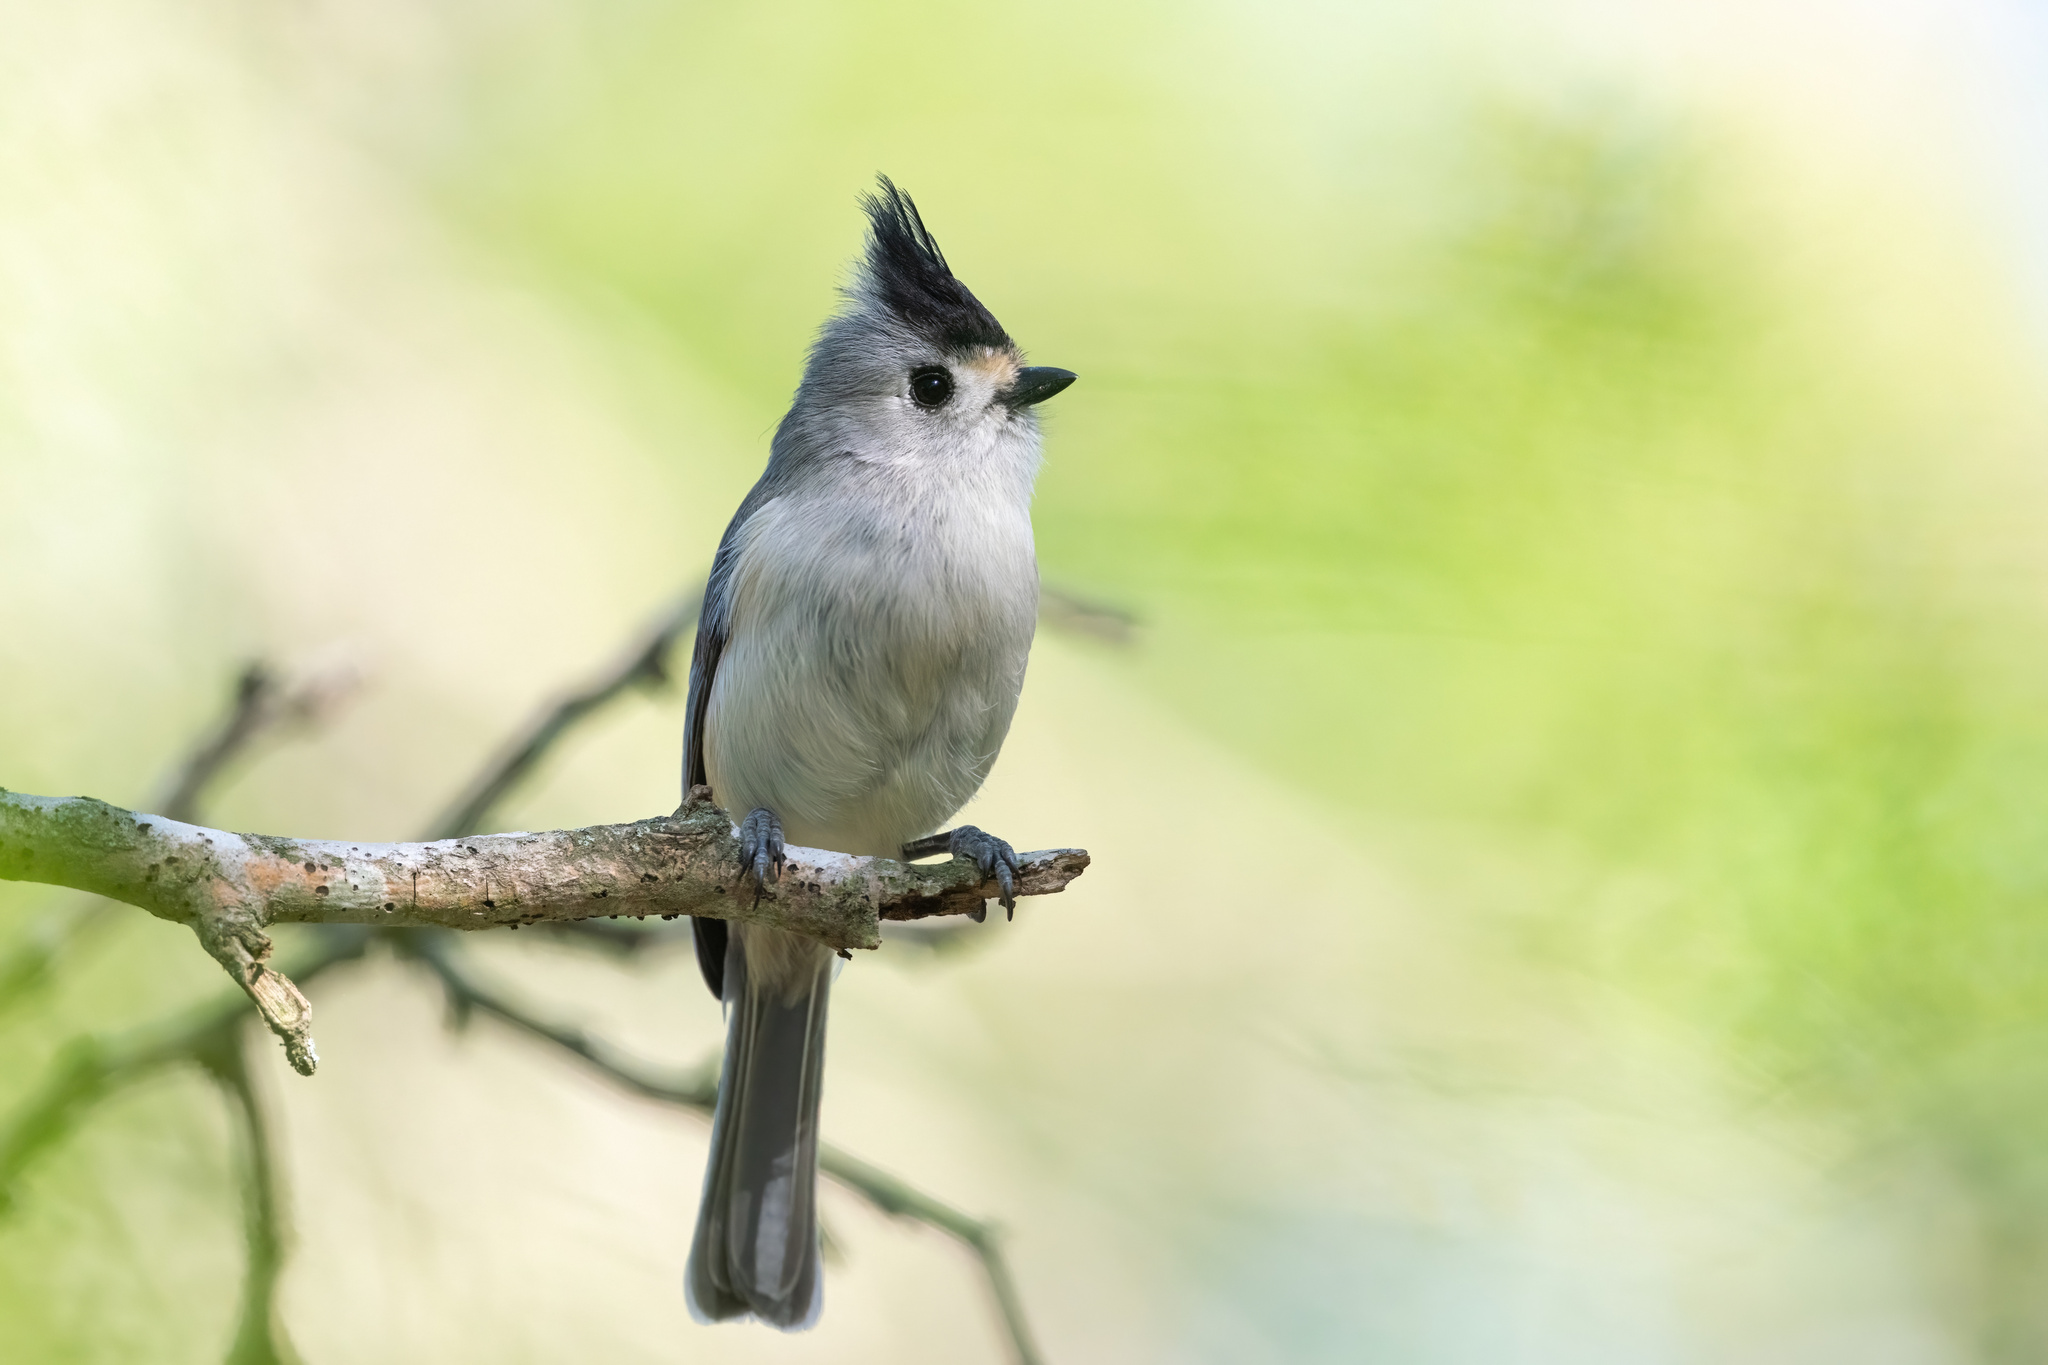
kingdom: Animalia
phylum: Chordata
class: Aves
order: Passeriformes
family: Paridae
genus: Baeolophus
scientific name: Baeolophus atricristatus
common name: Black-crested titmouse
